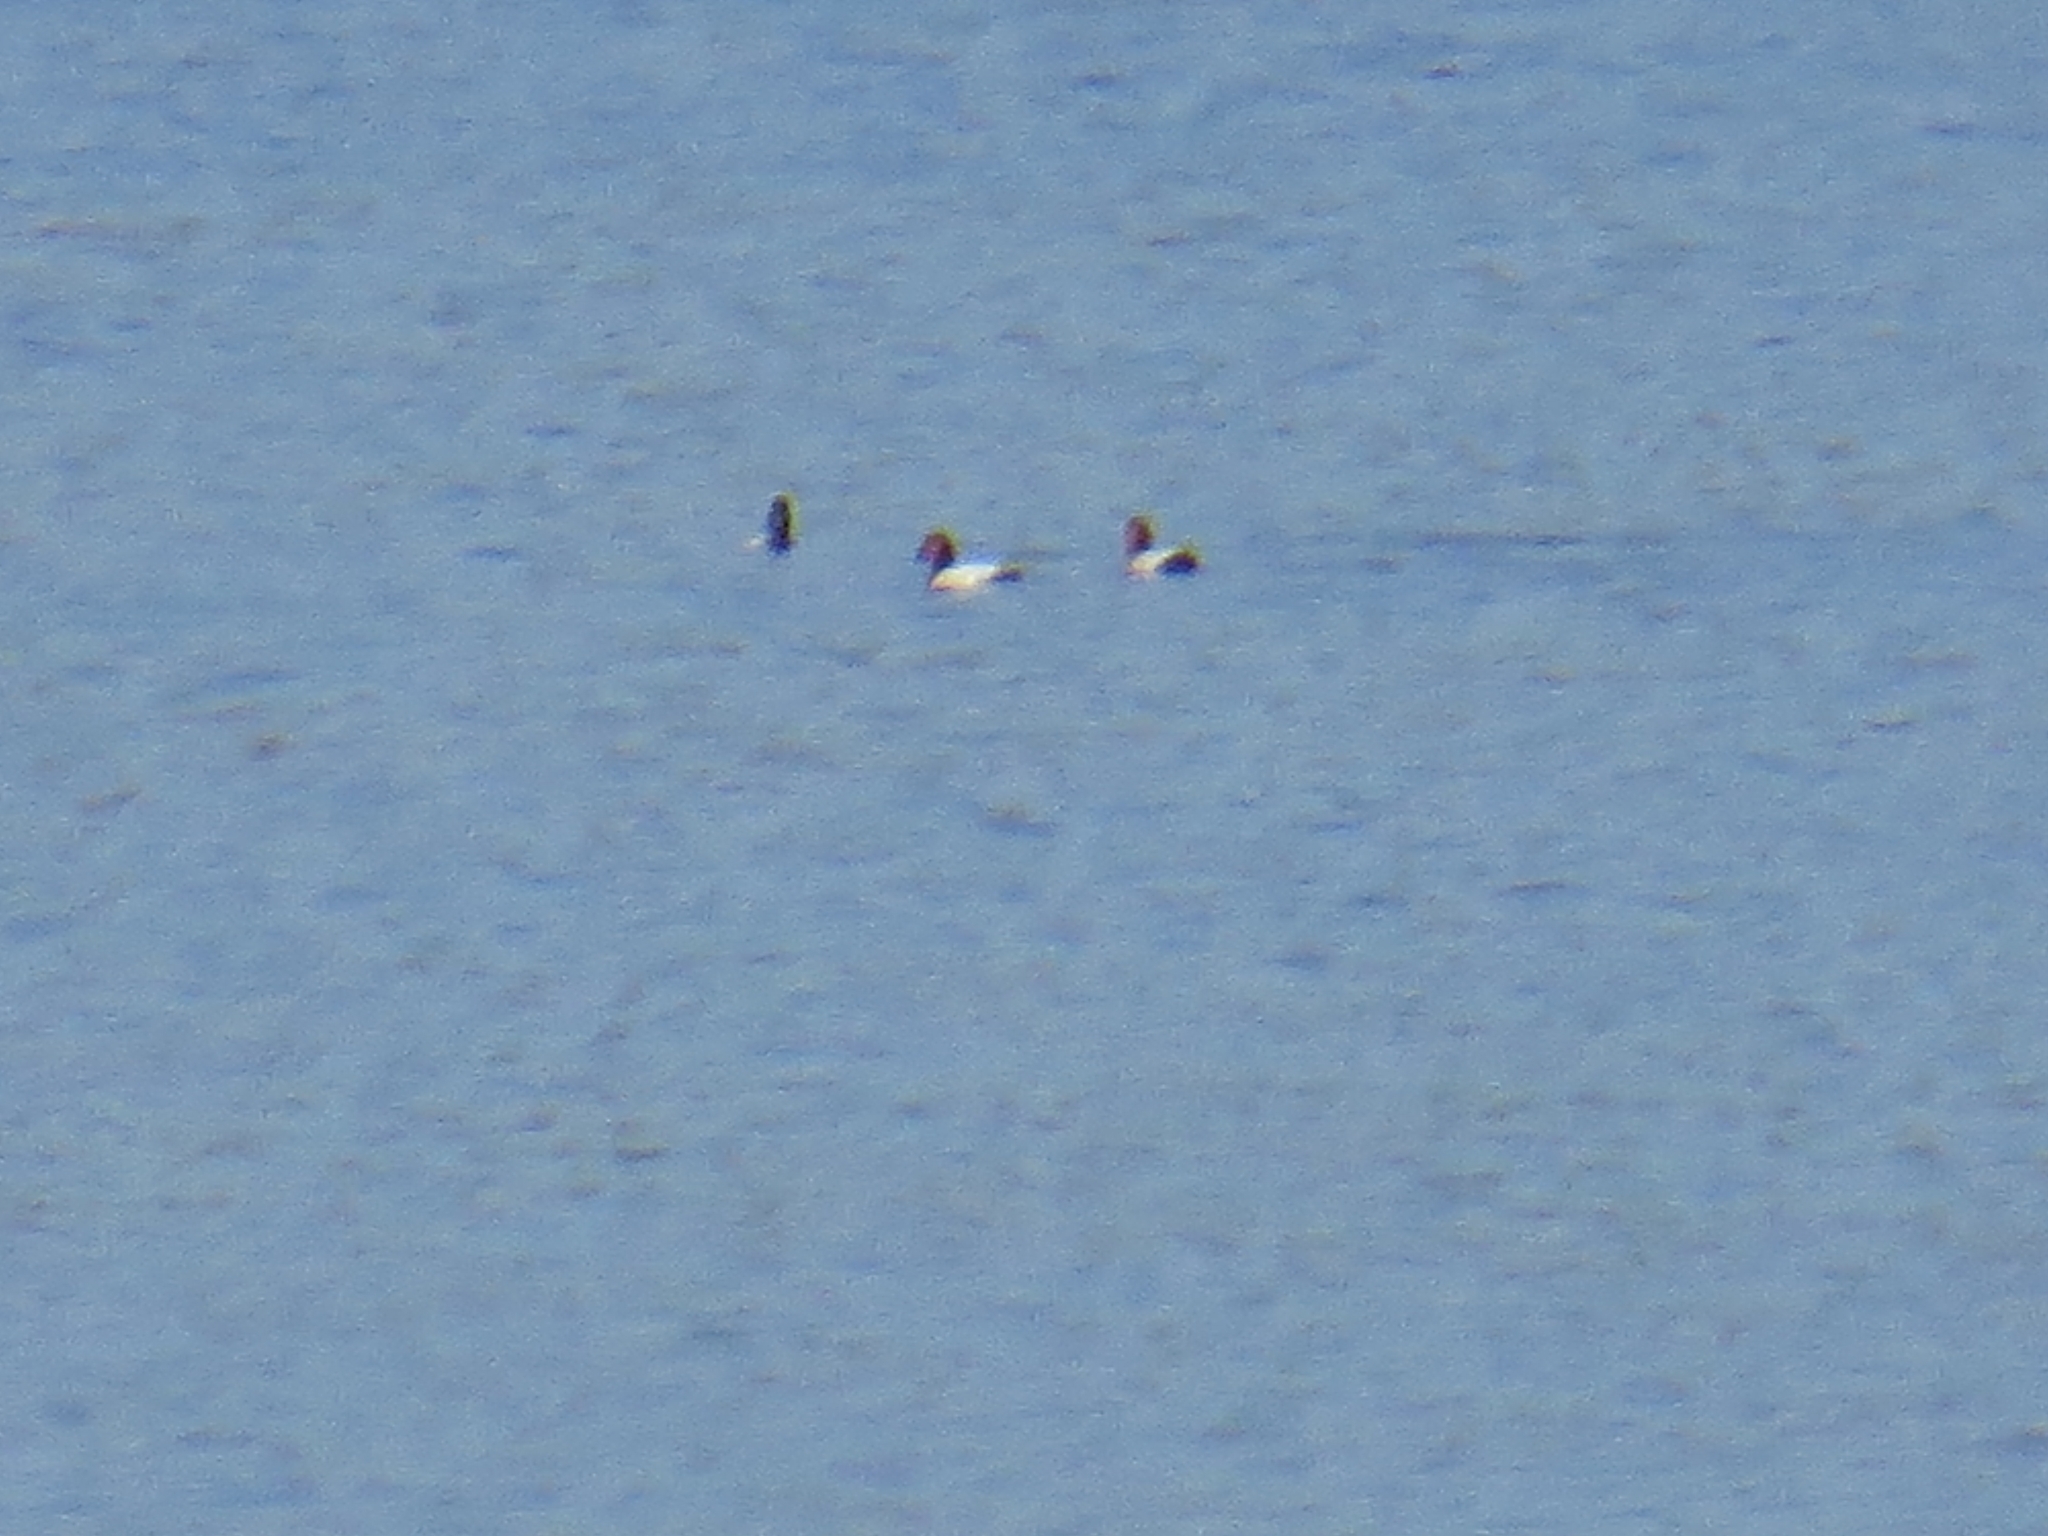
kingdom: Animalia
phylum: Chordata
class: Aves
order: Anseriformes
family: Anatidae
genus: Aythya
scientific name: Aythya ferina
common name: Common pochard
